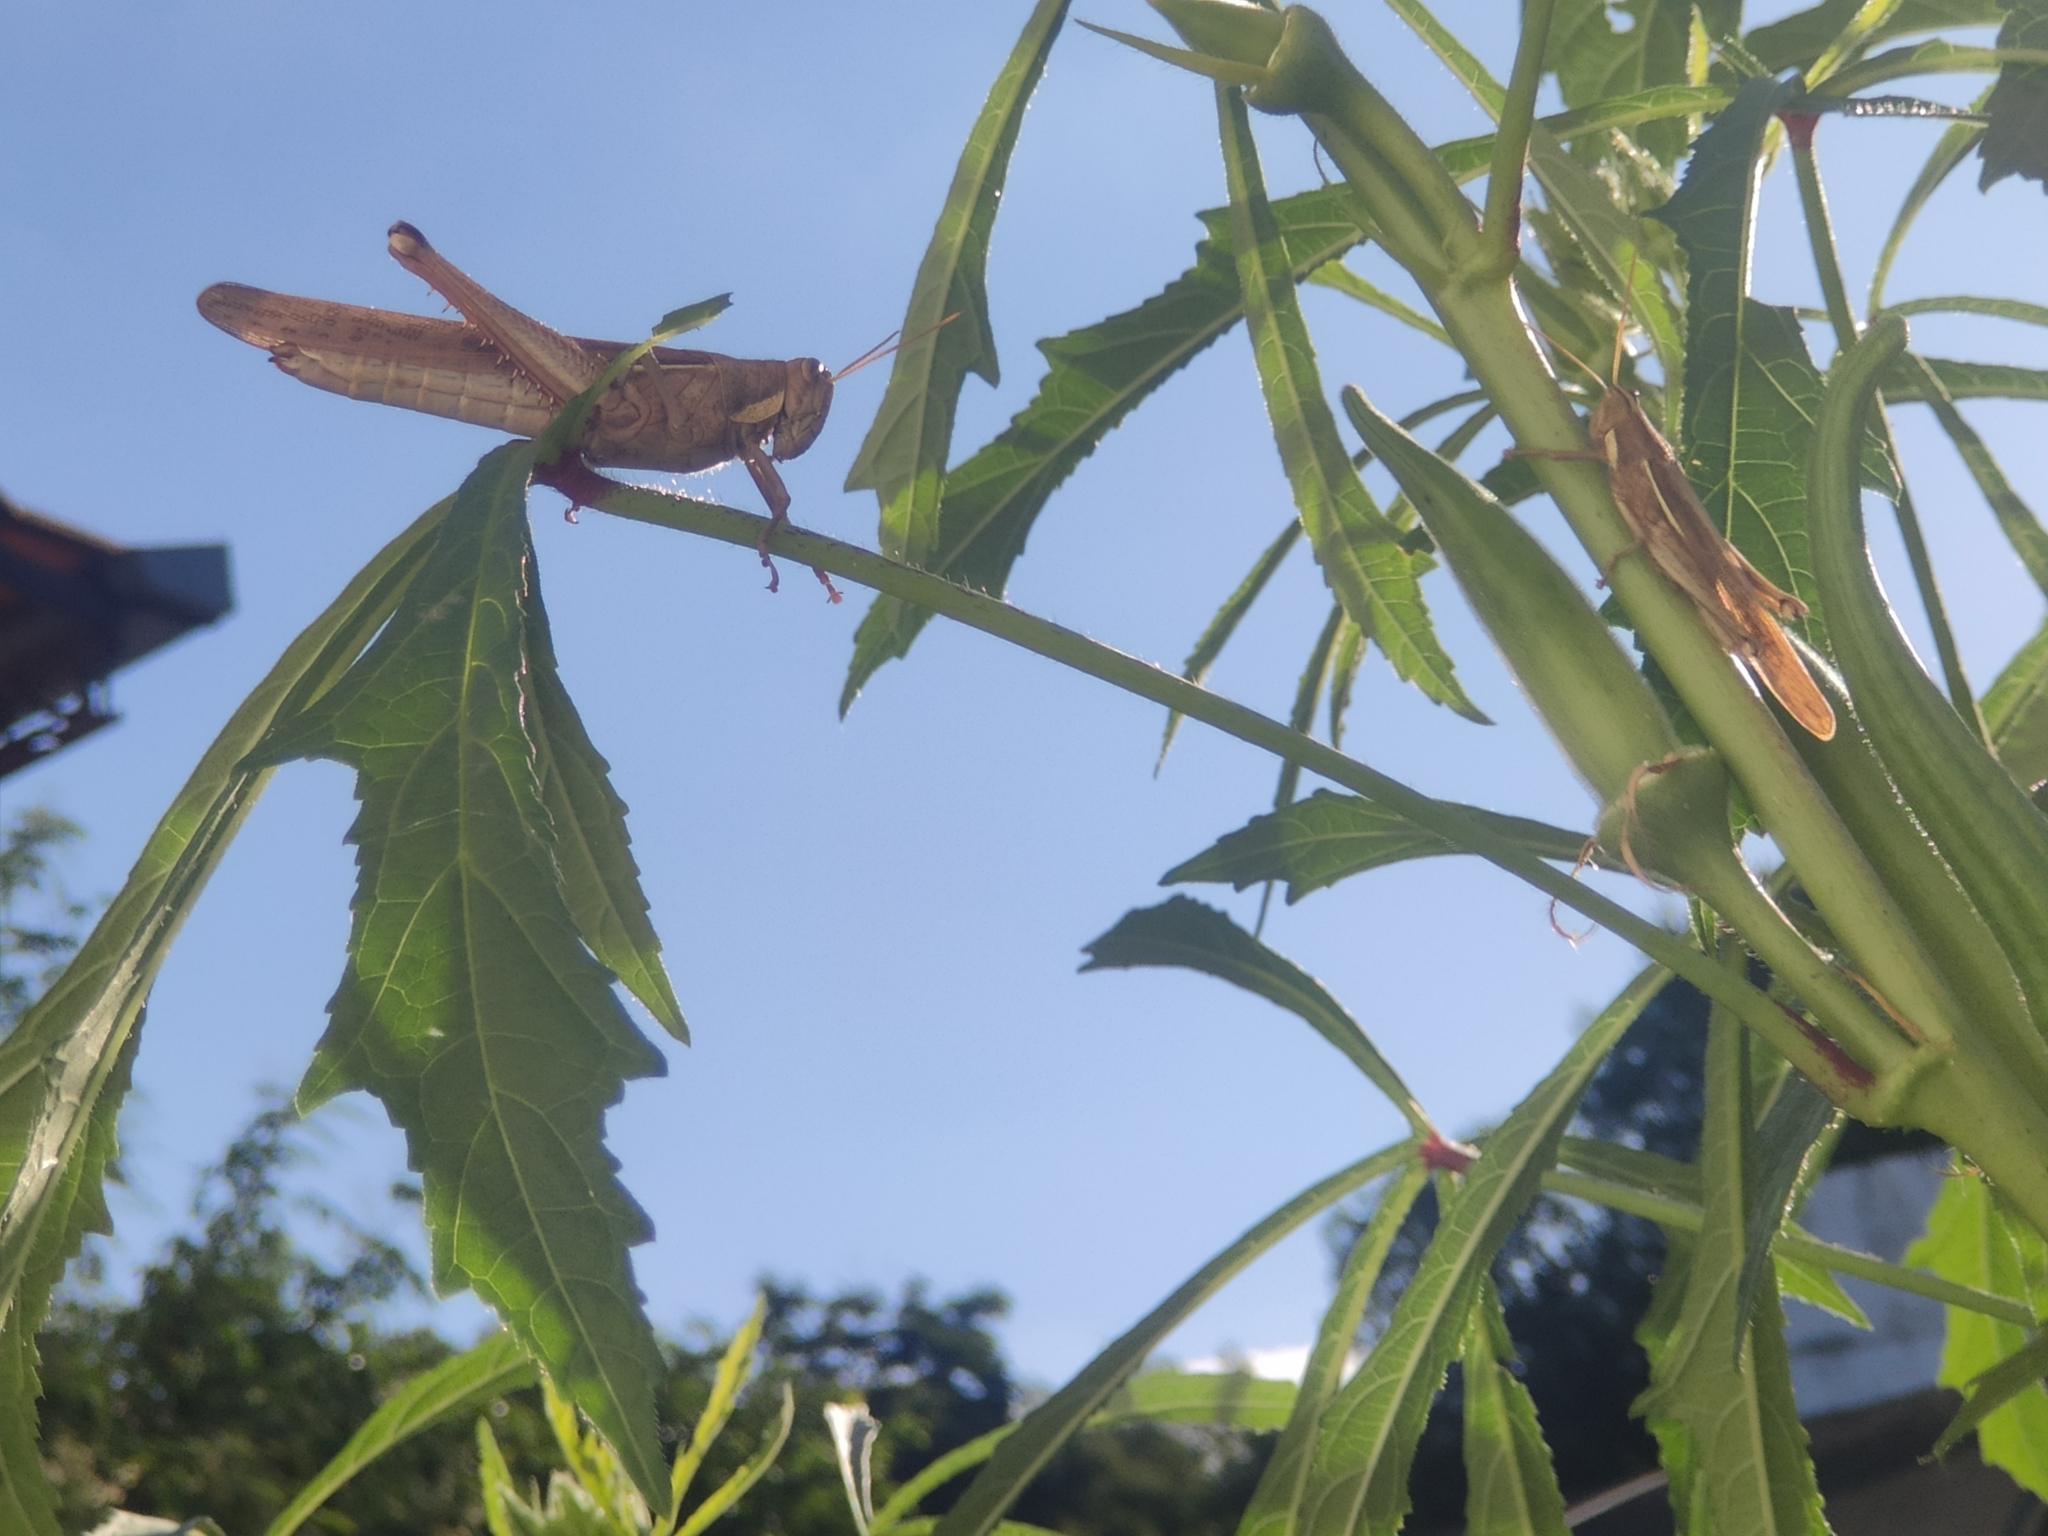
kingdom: Animalia
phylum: Arthropoda
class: Insecta
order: Orthoptera
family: Acrididae
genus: Schistocerca
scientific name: Schistocerca flavofasciata
